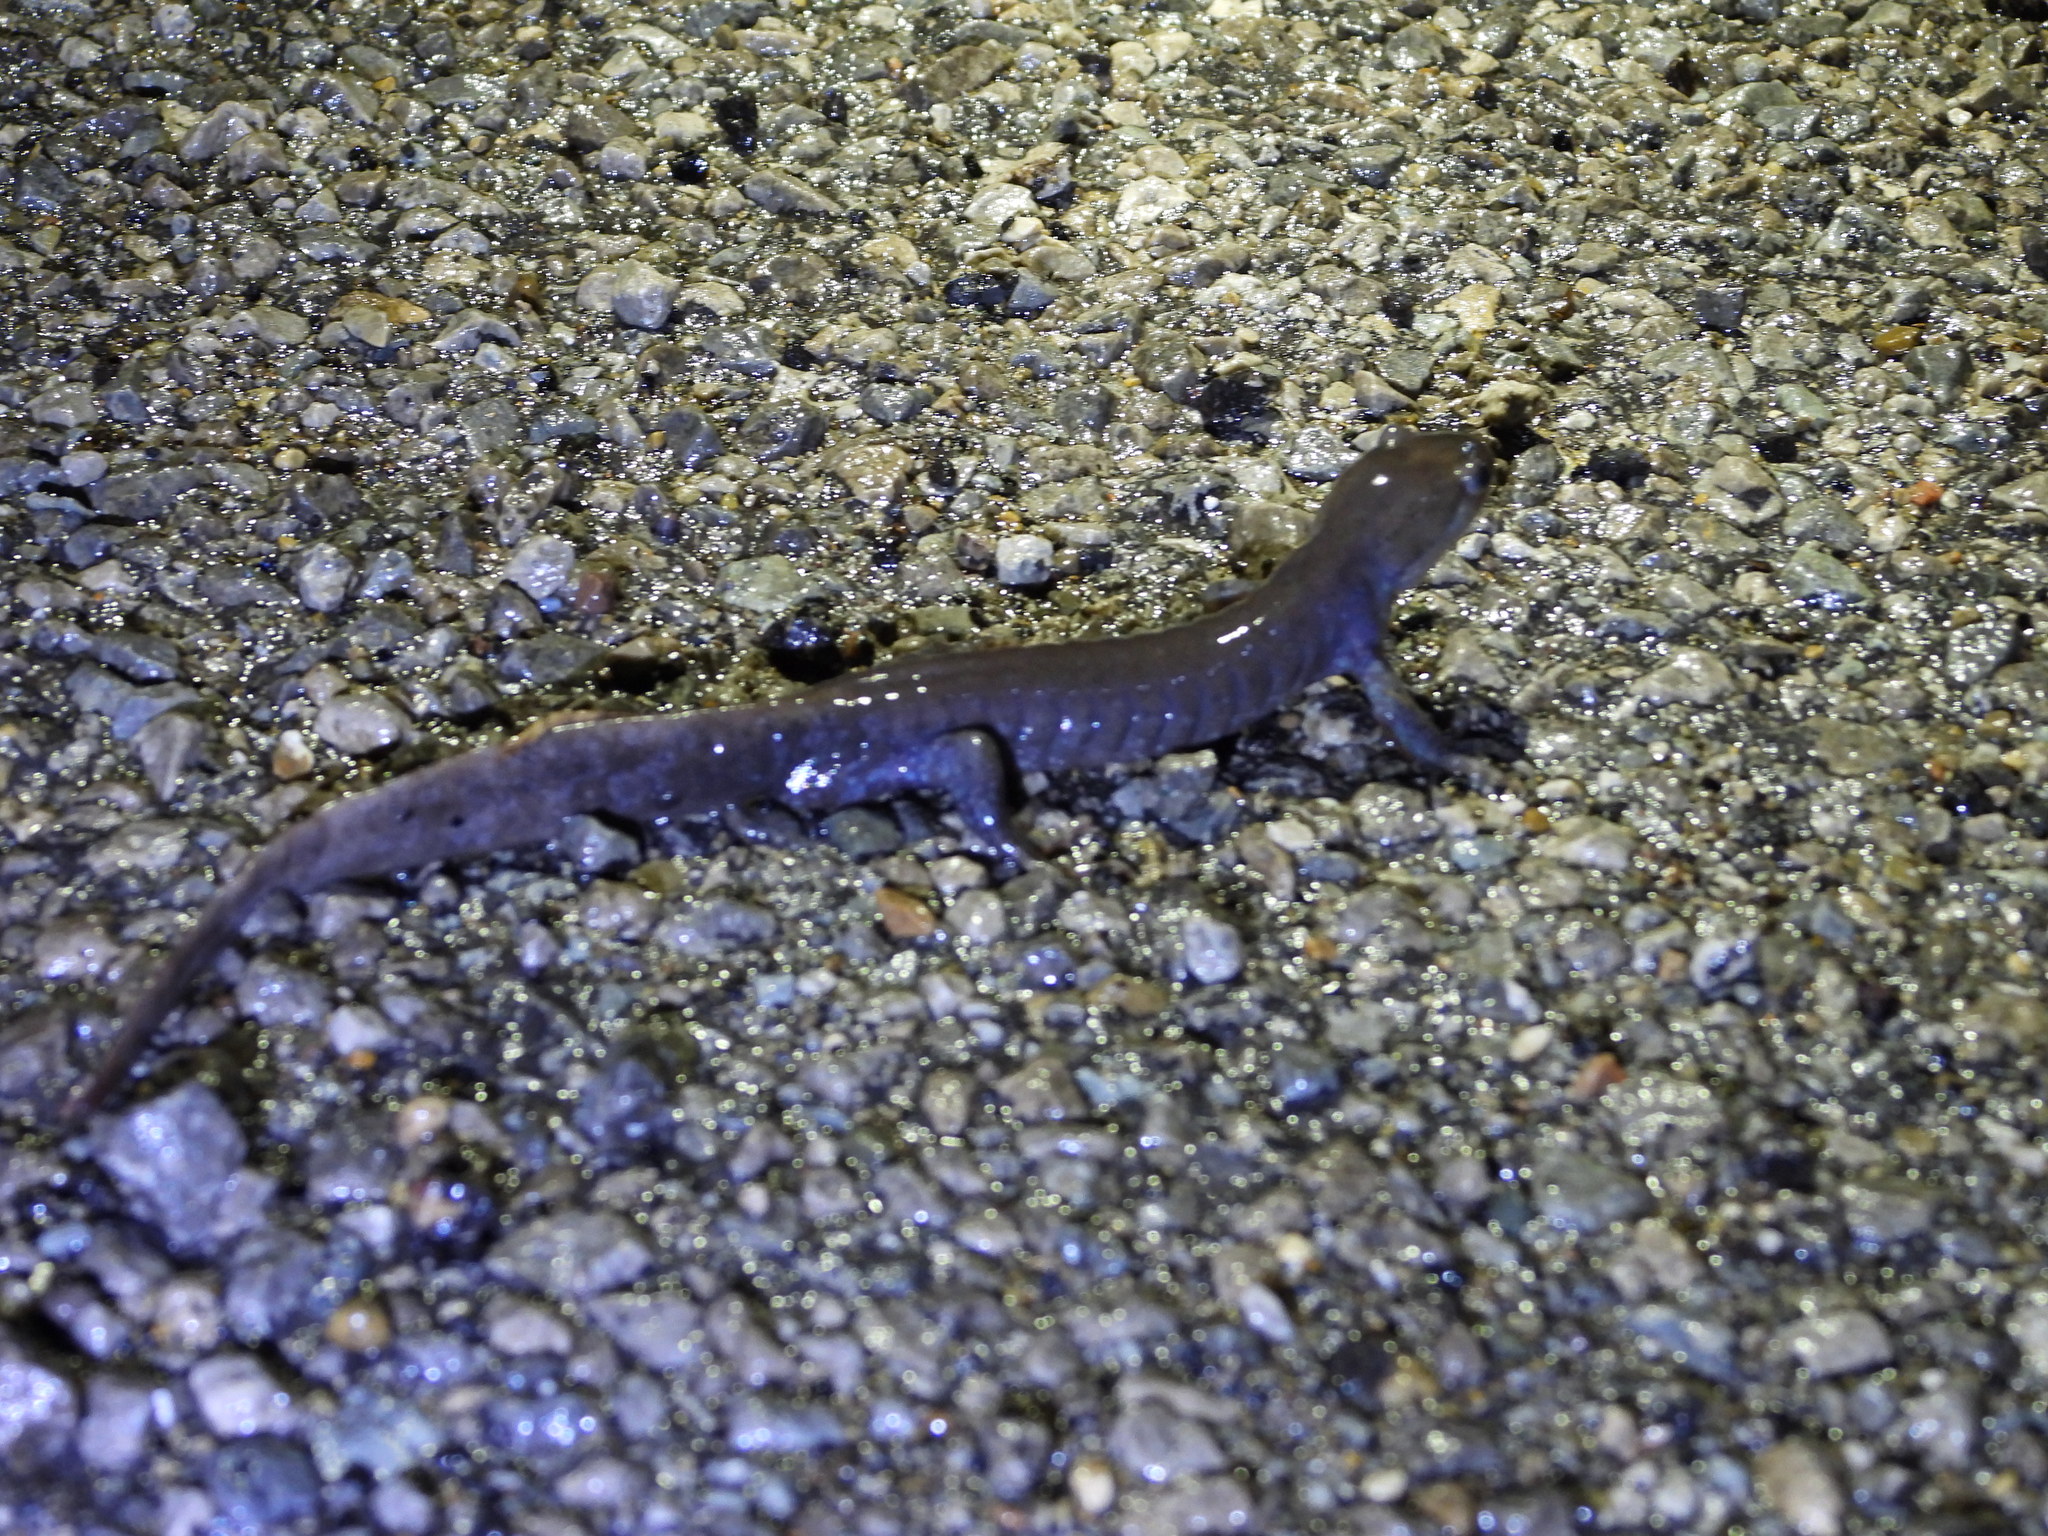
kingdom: Animalia
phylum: Chordata
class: Amphibia
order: Caudata
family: Ambystomatidae
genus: Ambystoma
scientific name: Ambystoma jeffersonianum
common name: Jefferson salamander
